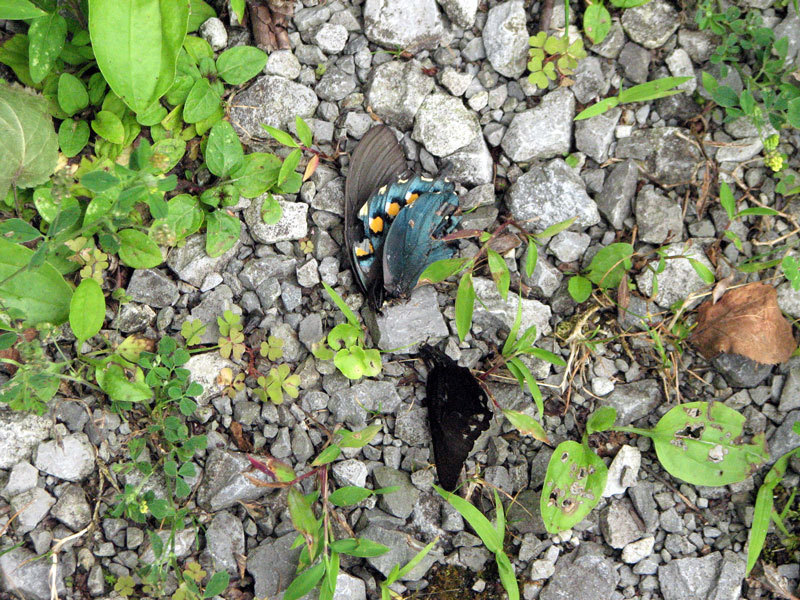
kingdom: Animalia
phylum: Arthropoda
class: Insecta
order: Lepidoptera
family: Papilionidae
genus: Battus
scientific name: Battus philenor
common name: Pipevine swallowtail
